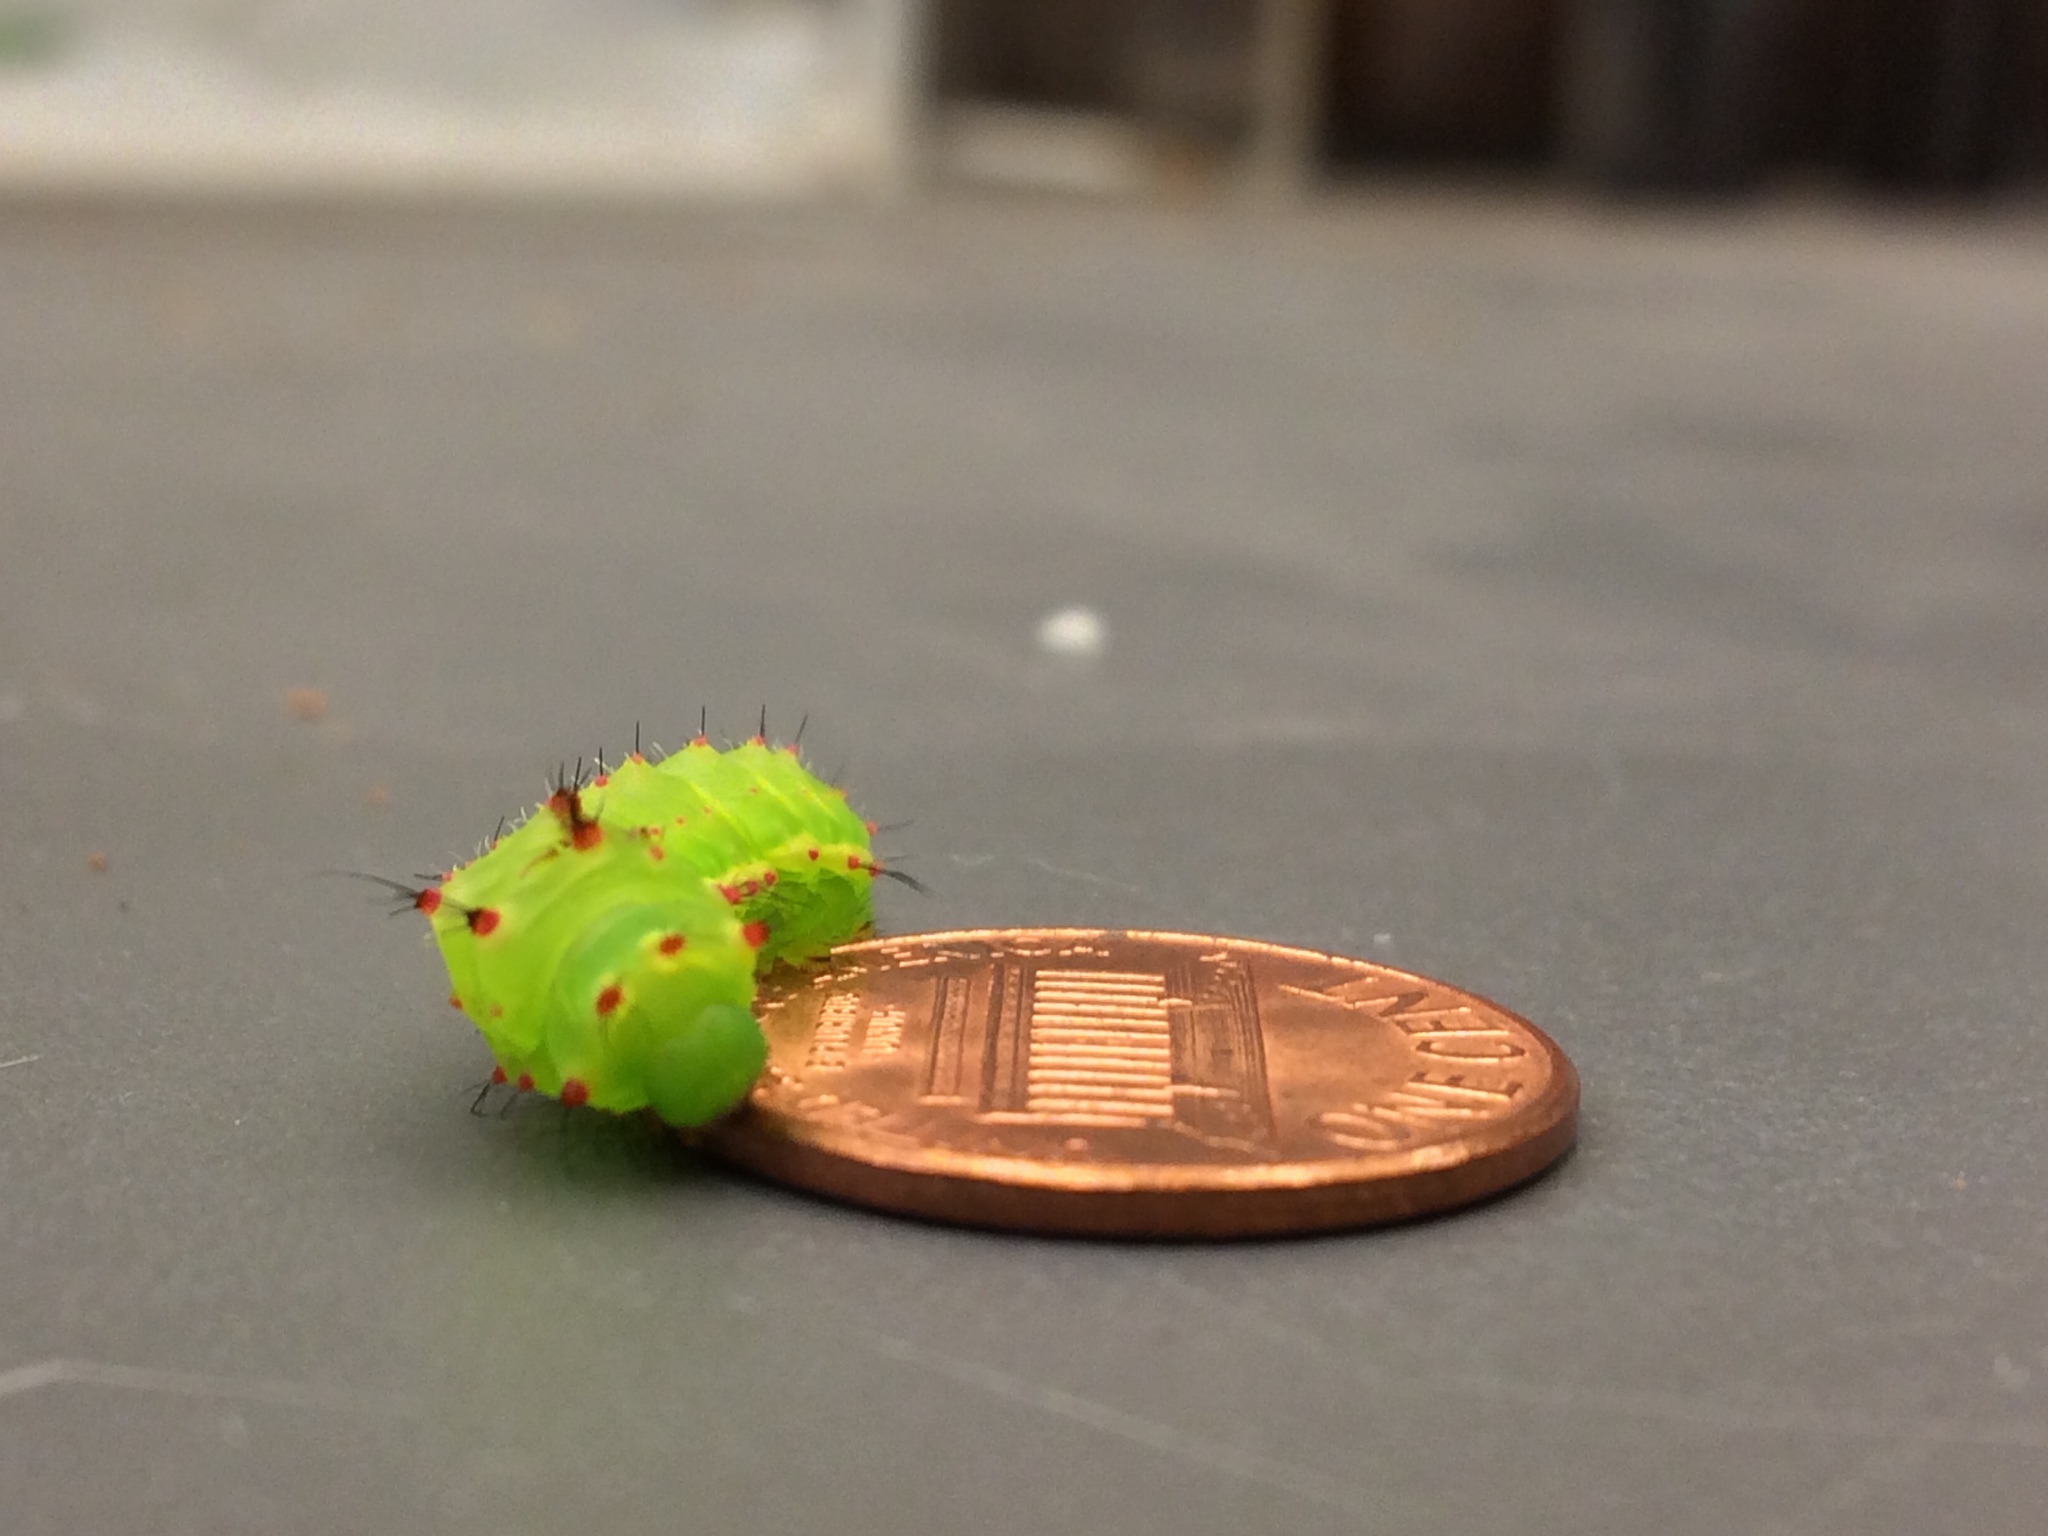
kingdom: Animalia
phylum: Arthropoda
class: Insecta
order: Lepidoptera
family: Saturniidae
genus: Actias
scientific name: Actias luna
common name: Luna moth
